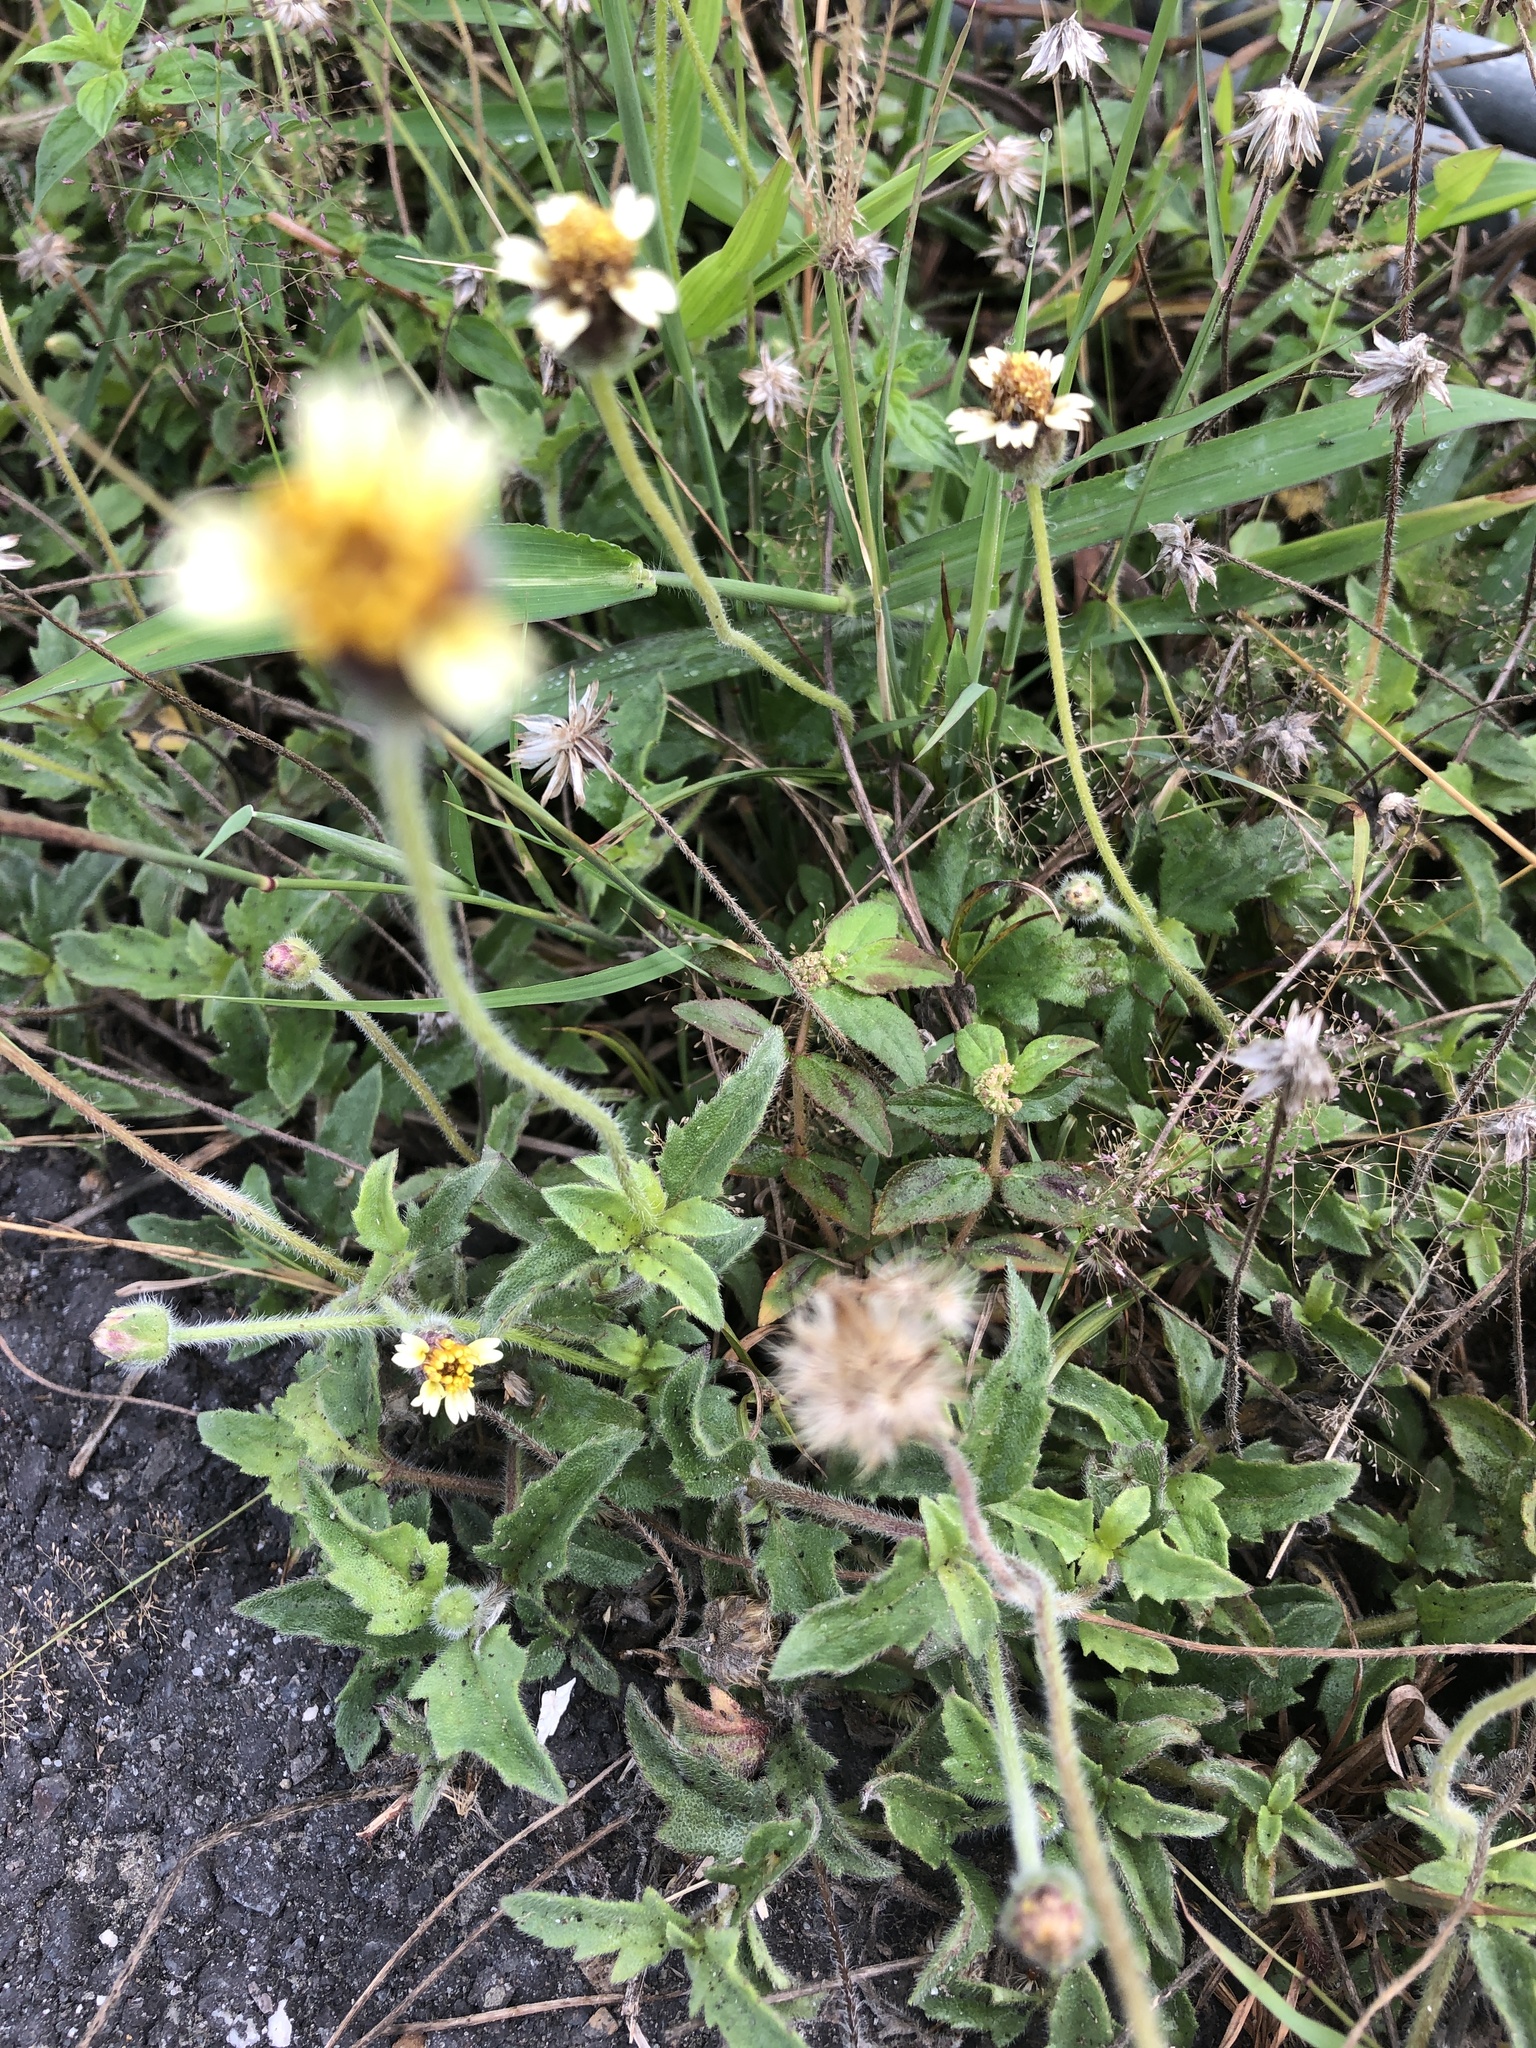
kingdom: Plantae
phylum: Tracheophyta
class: Magnoliopsida
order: Asterales
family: Asteraceae
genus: Tridax
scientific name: Tridax procumbens
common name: Coatbuttons
